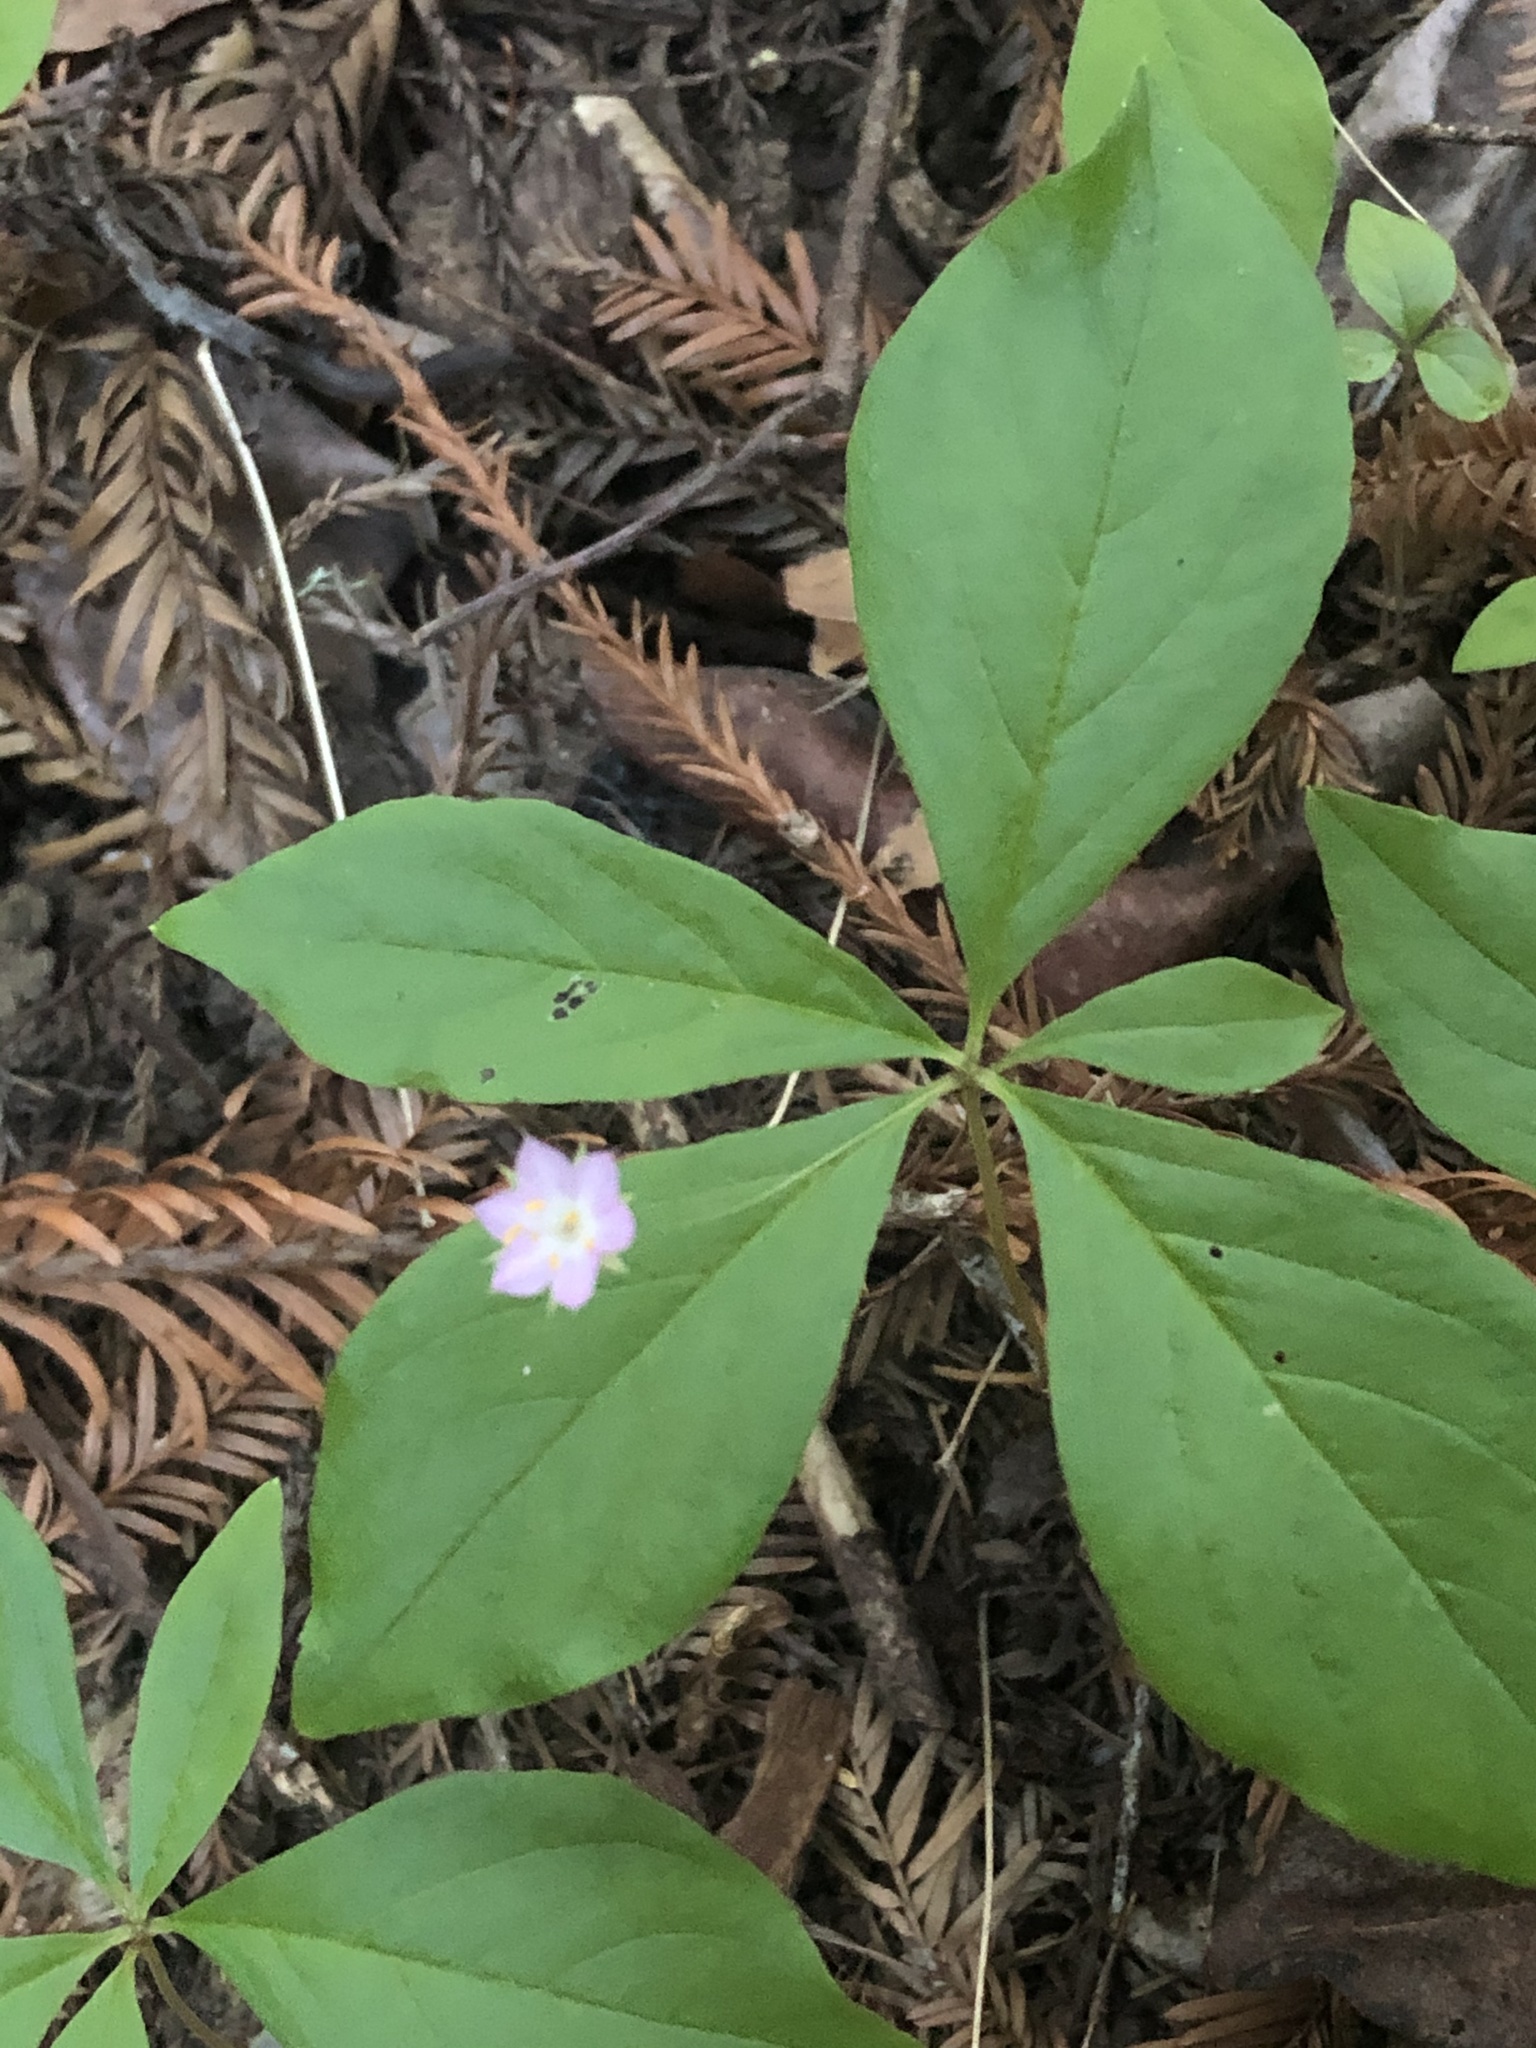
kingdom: Plantae
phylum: Tracheophyta
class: Magnoliopsida
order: Ericales
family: Primulaceae
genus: Lysimachia
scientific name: Lysimachia latifolia
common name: Pacific starflower
